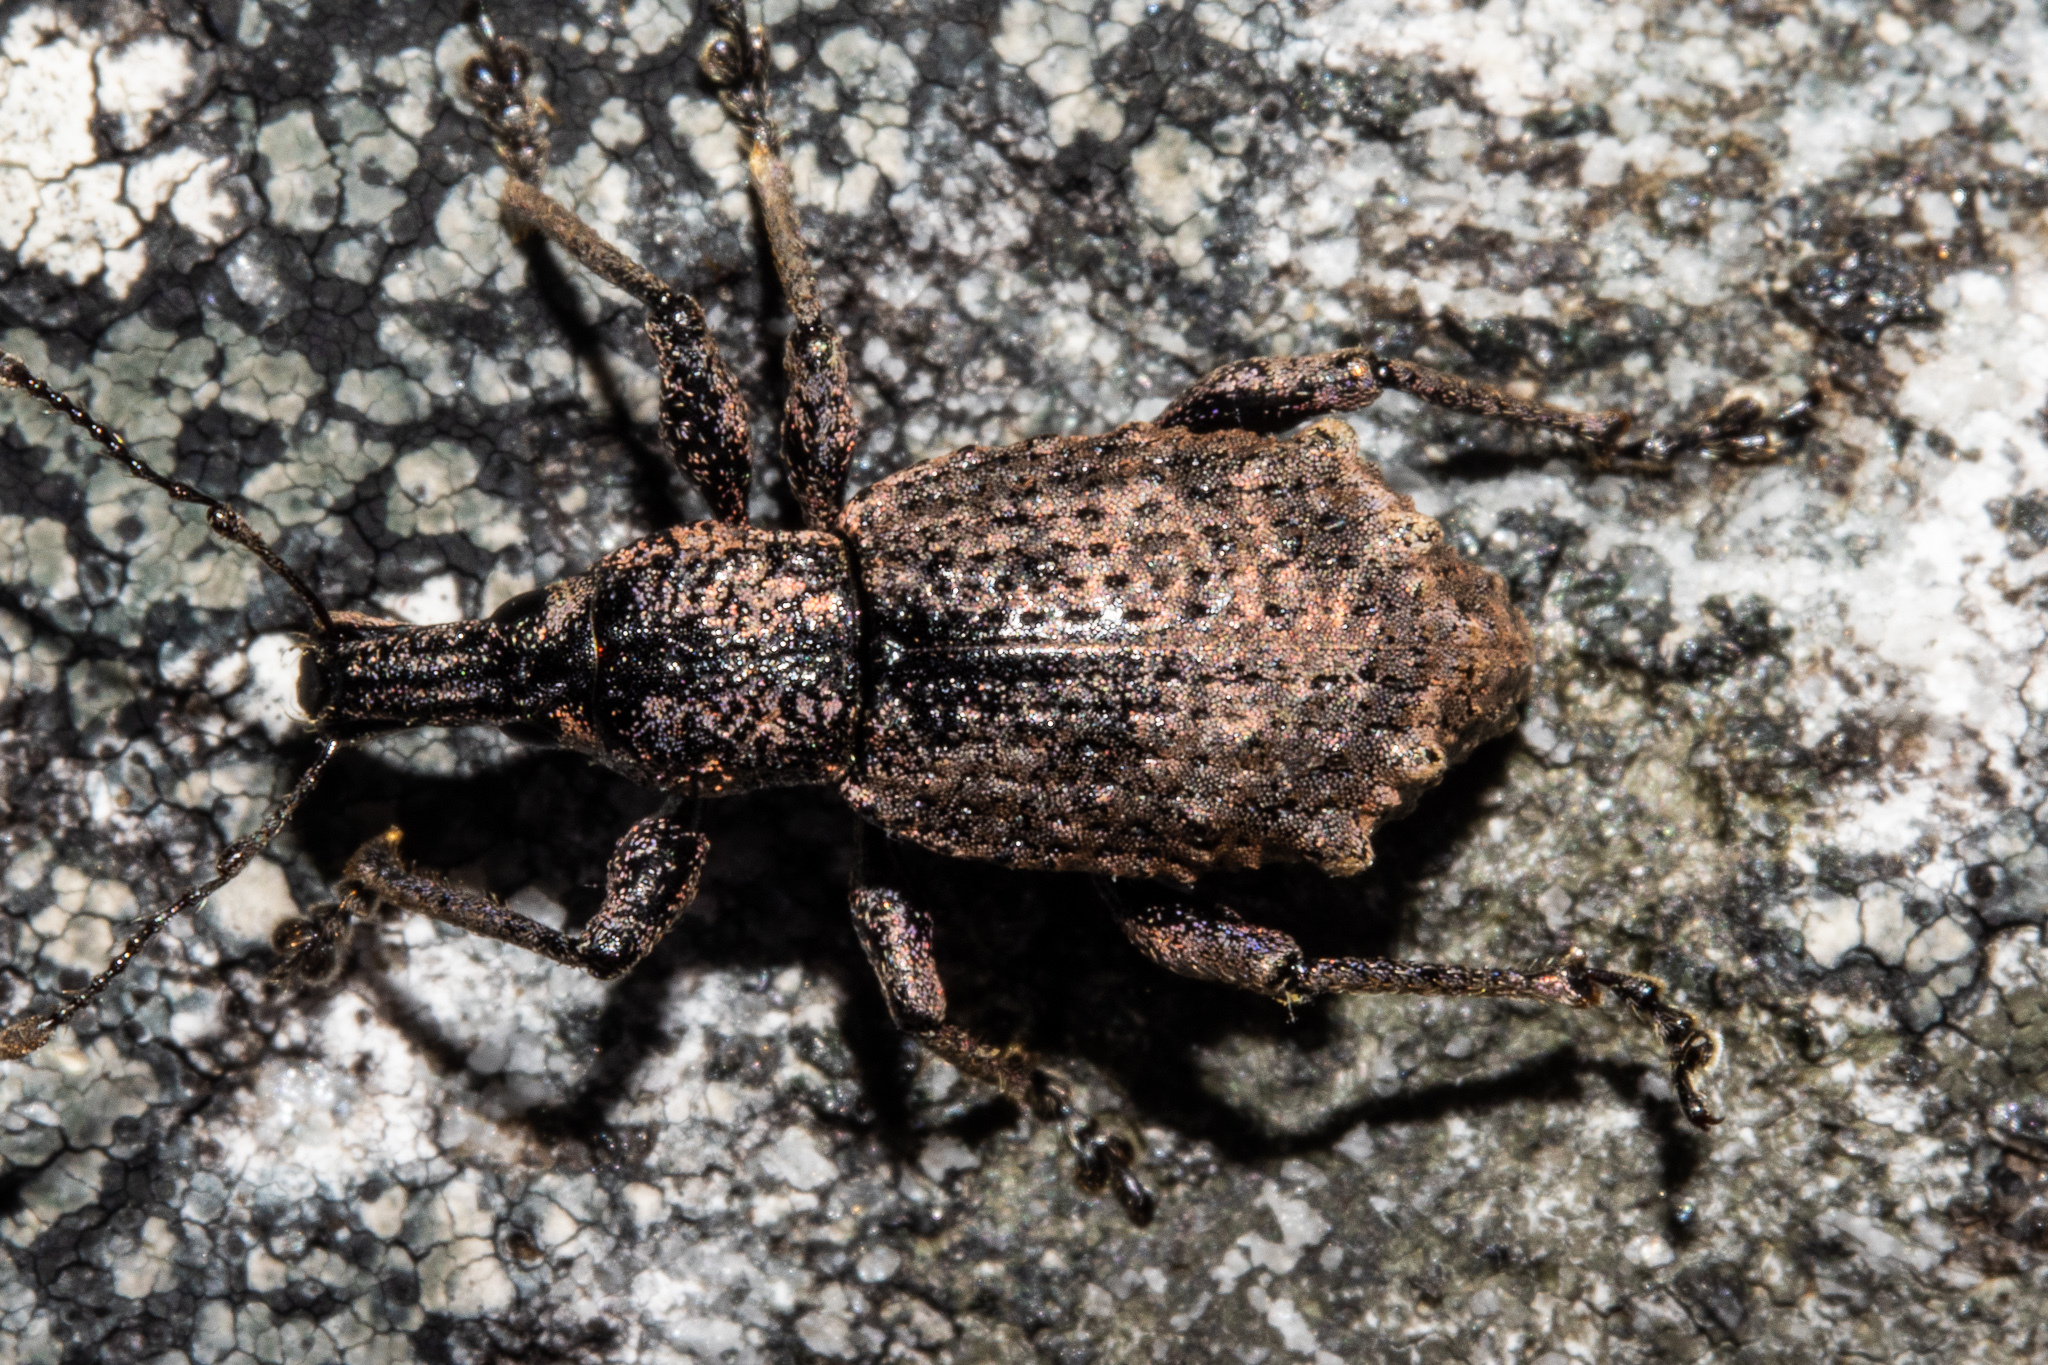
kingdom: Animalia
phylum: Arthropoda
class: Insecta
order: Coleoptera
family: Curculionidae
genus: Catoptes
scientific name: Catoptes brevicornis
